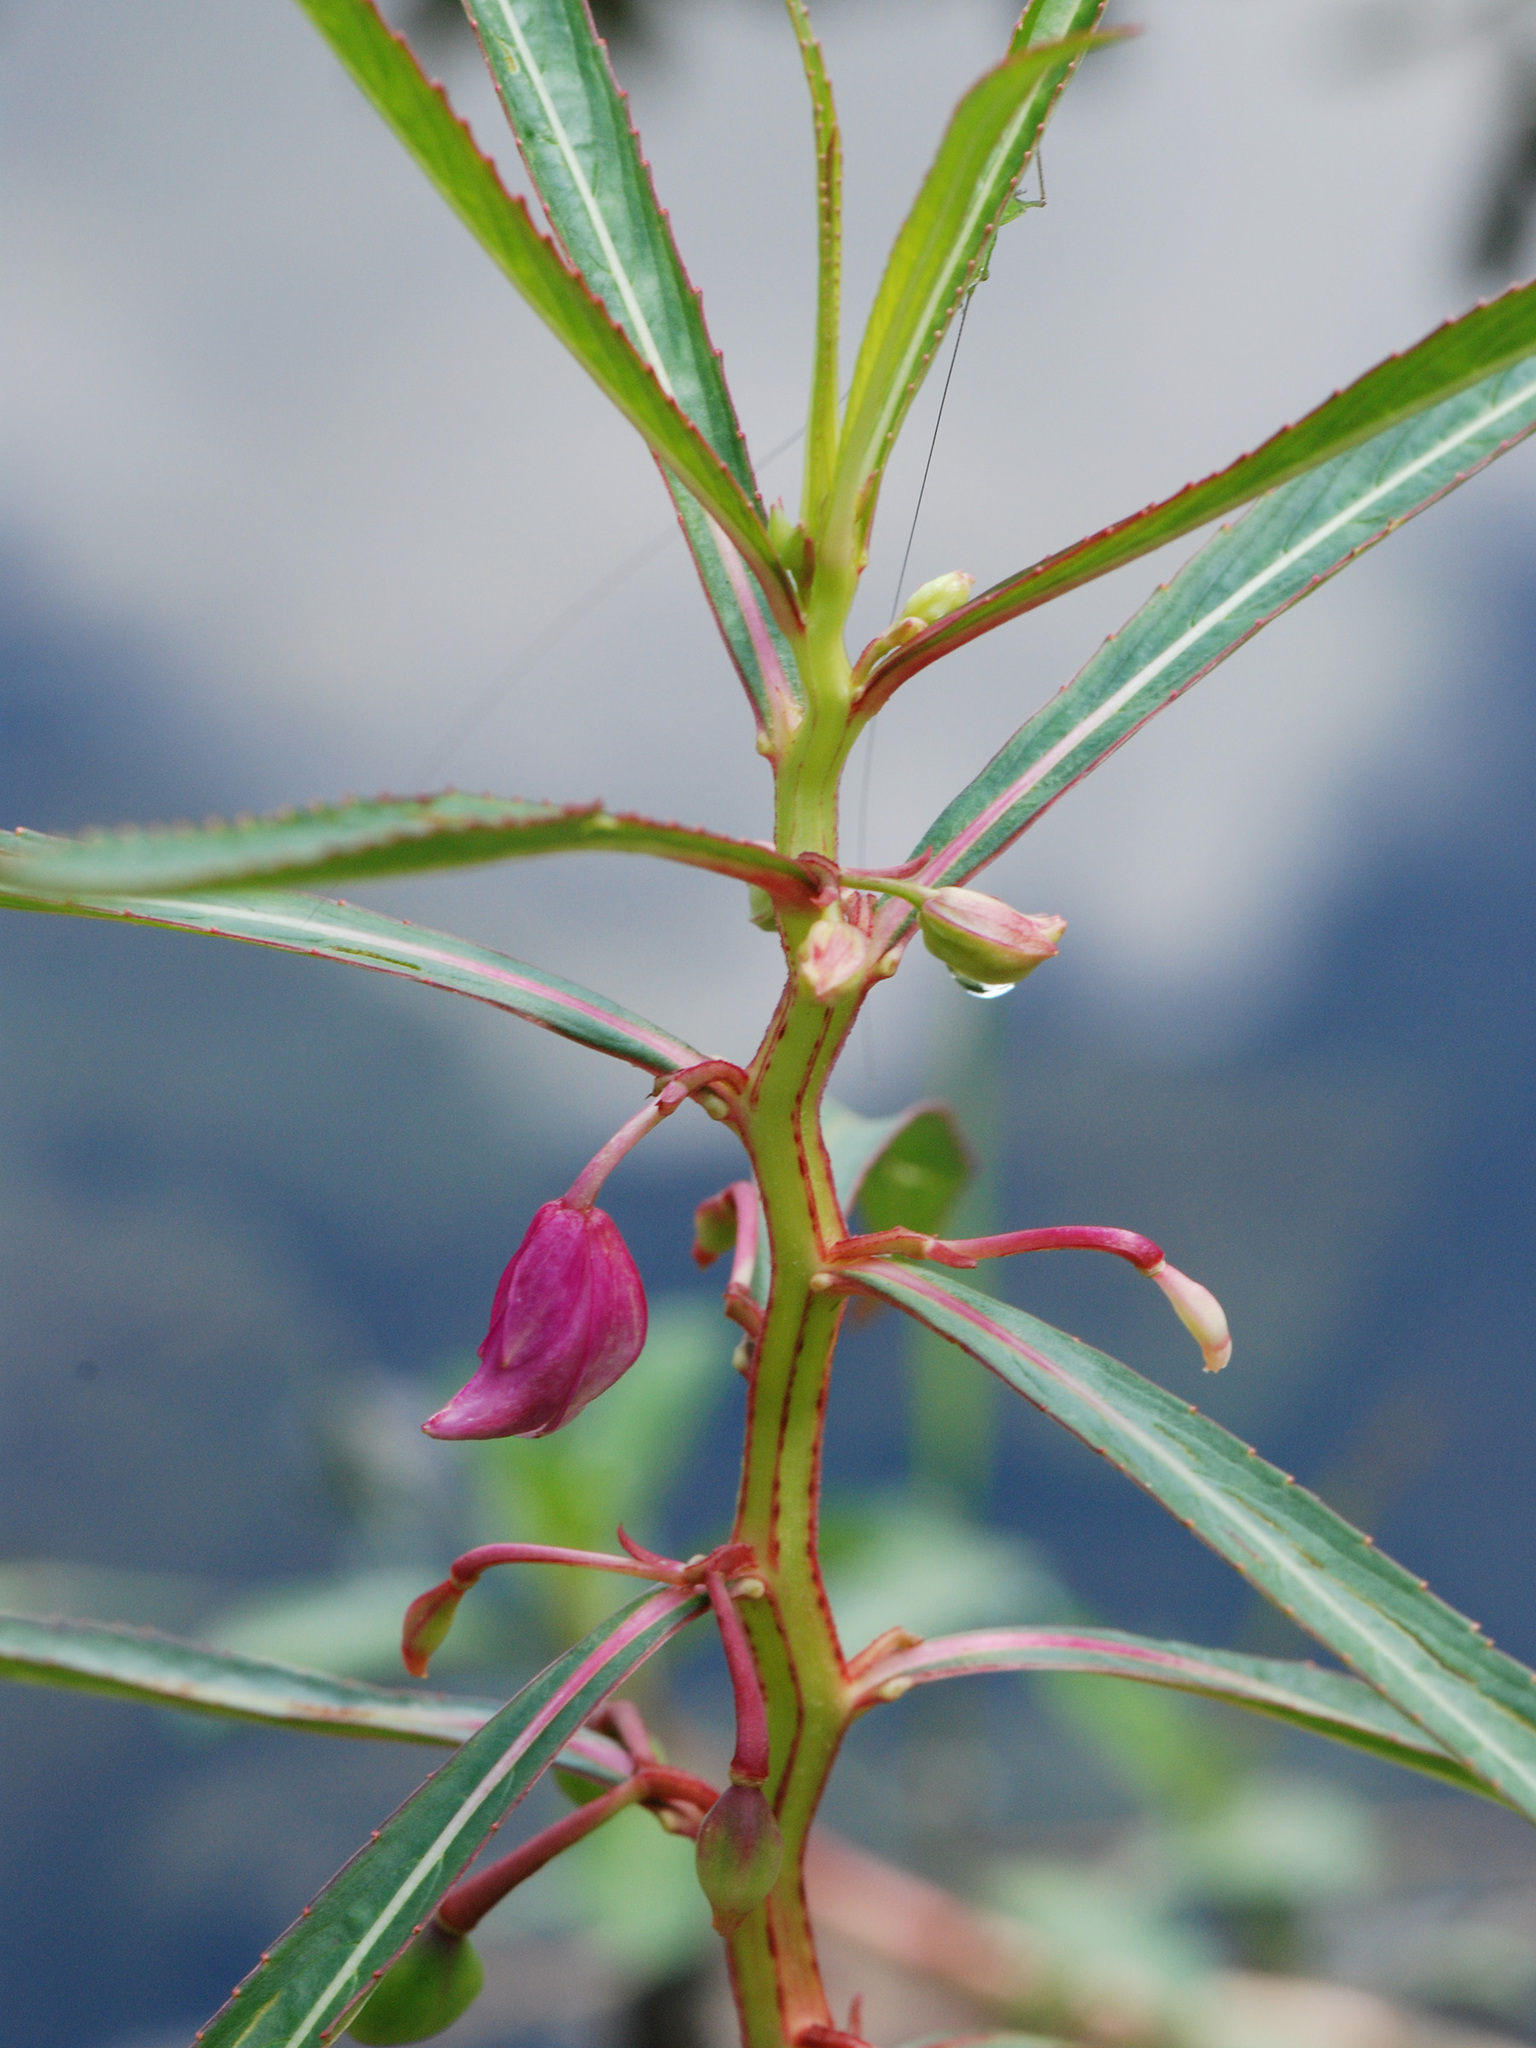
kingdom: Plantae
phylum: Tracheophyta
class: Magnoliopsida
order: Ericales
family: Balsaminaceae
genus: Hydrocera
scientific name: Hydrocera triflora
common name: Marsh henna
